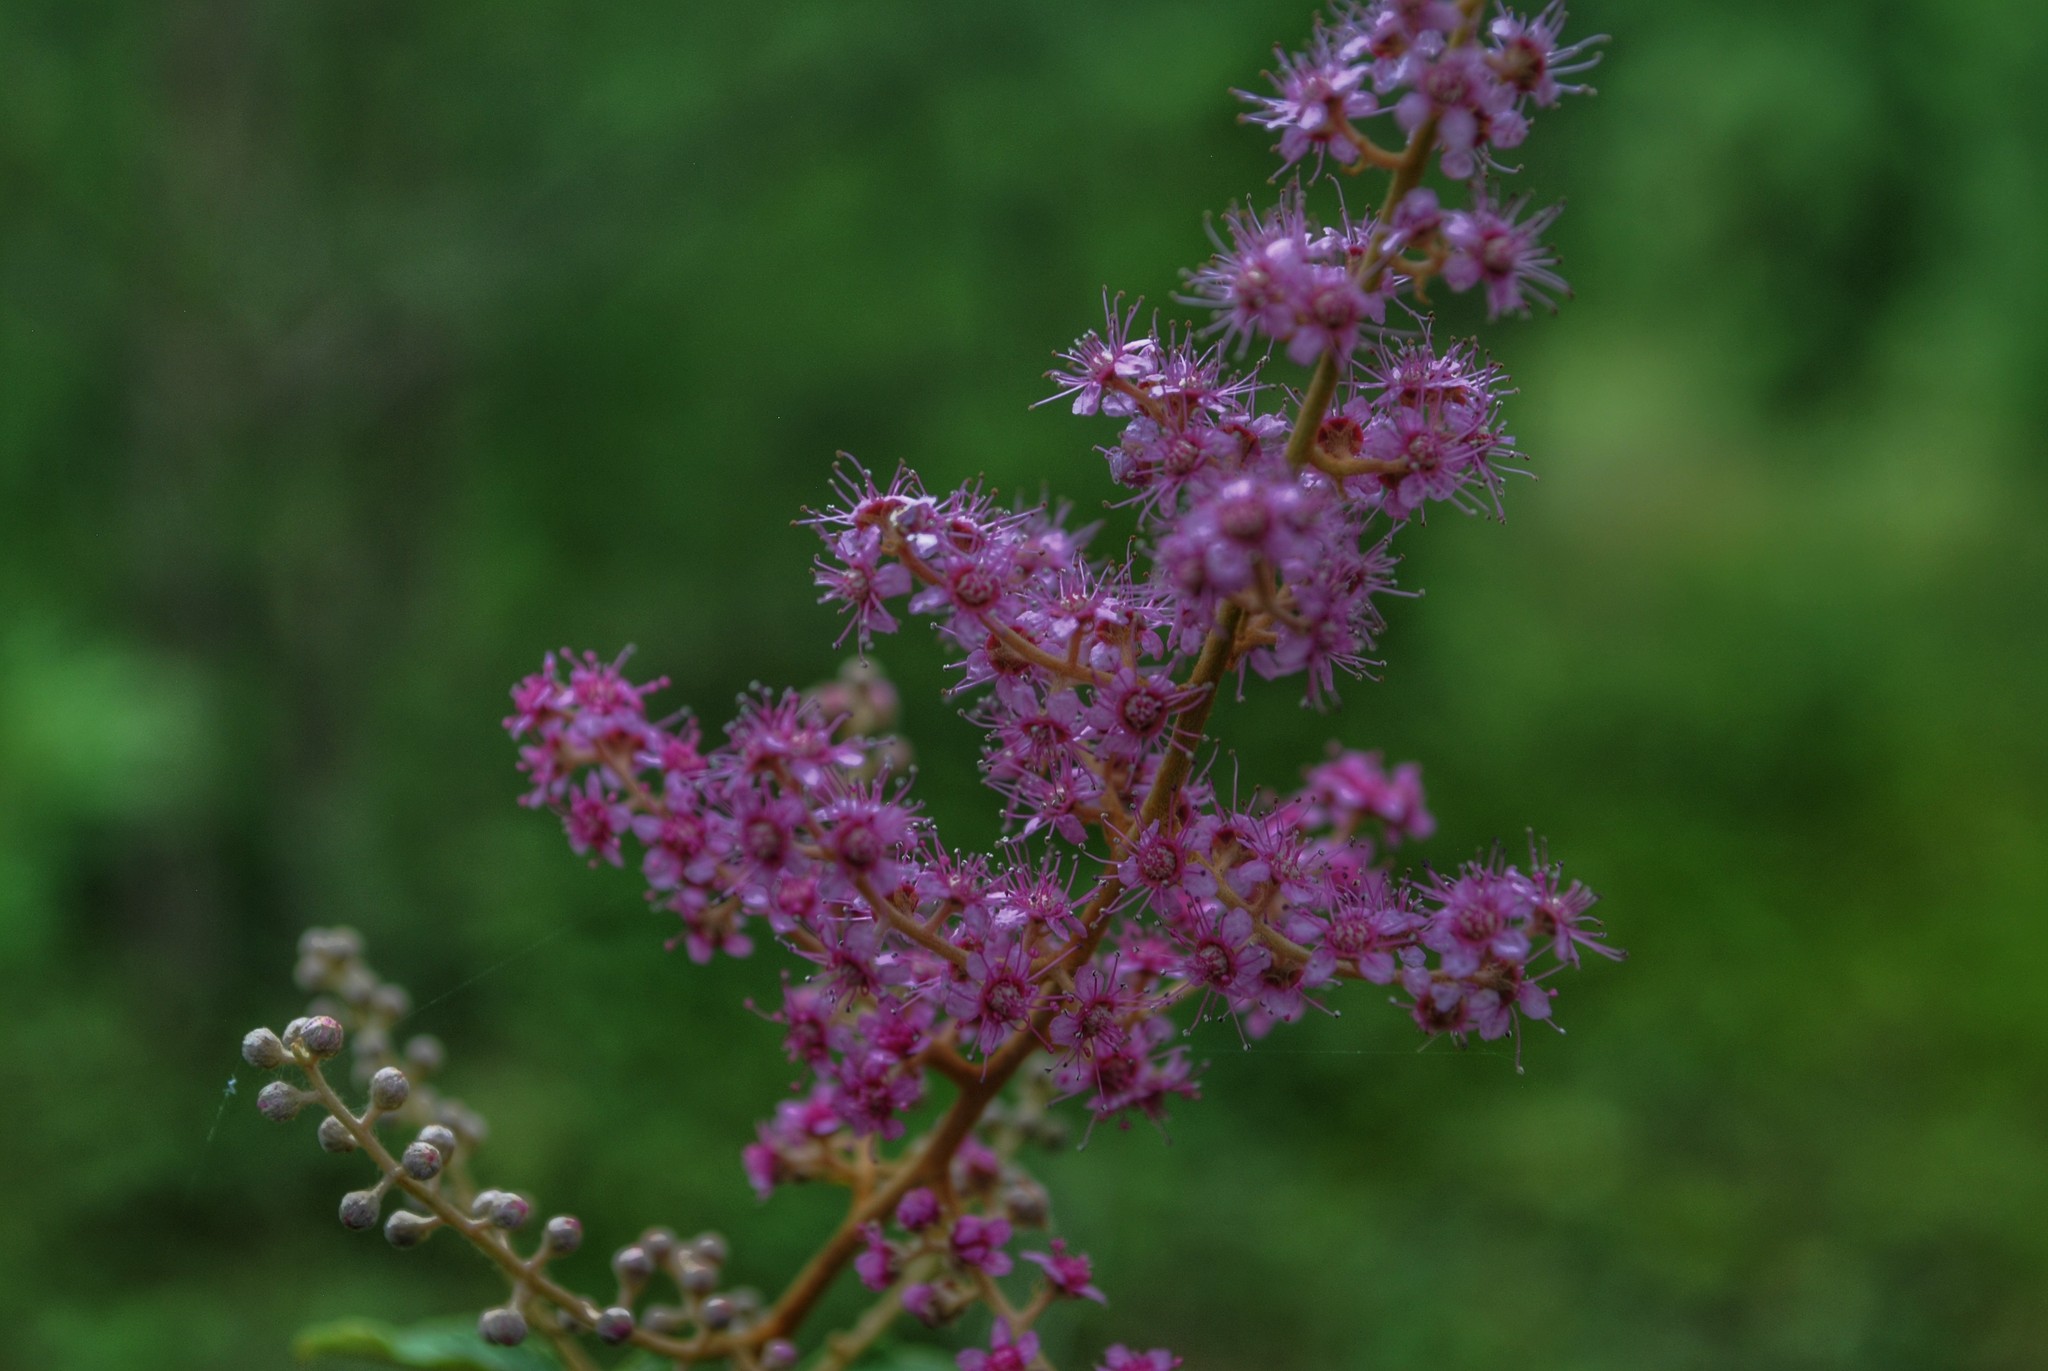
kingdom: Plantae
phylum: Tracheophyta
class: Magnoliopsida
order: Rosales
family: Rosaceae
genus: Spiraea
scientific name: Spiraea tomentosa
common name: Hardhack
